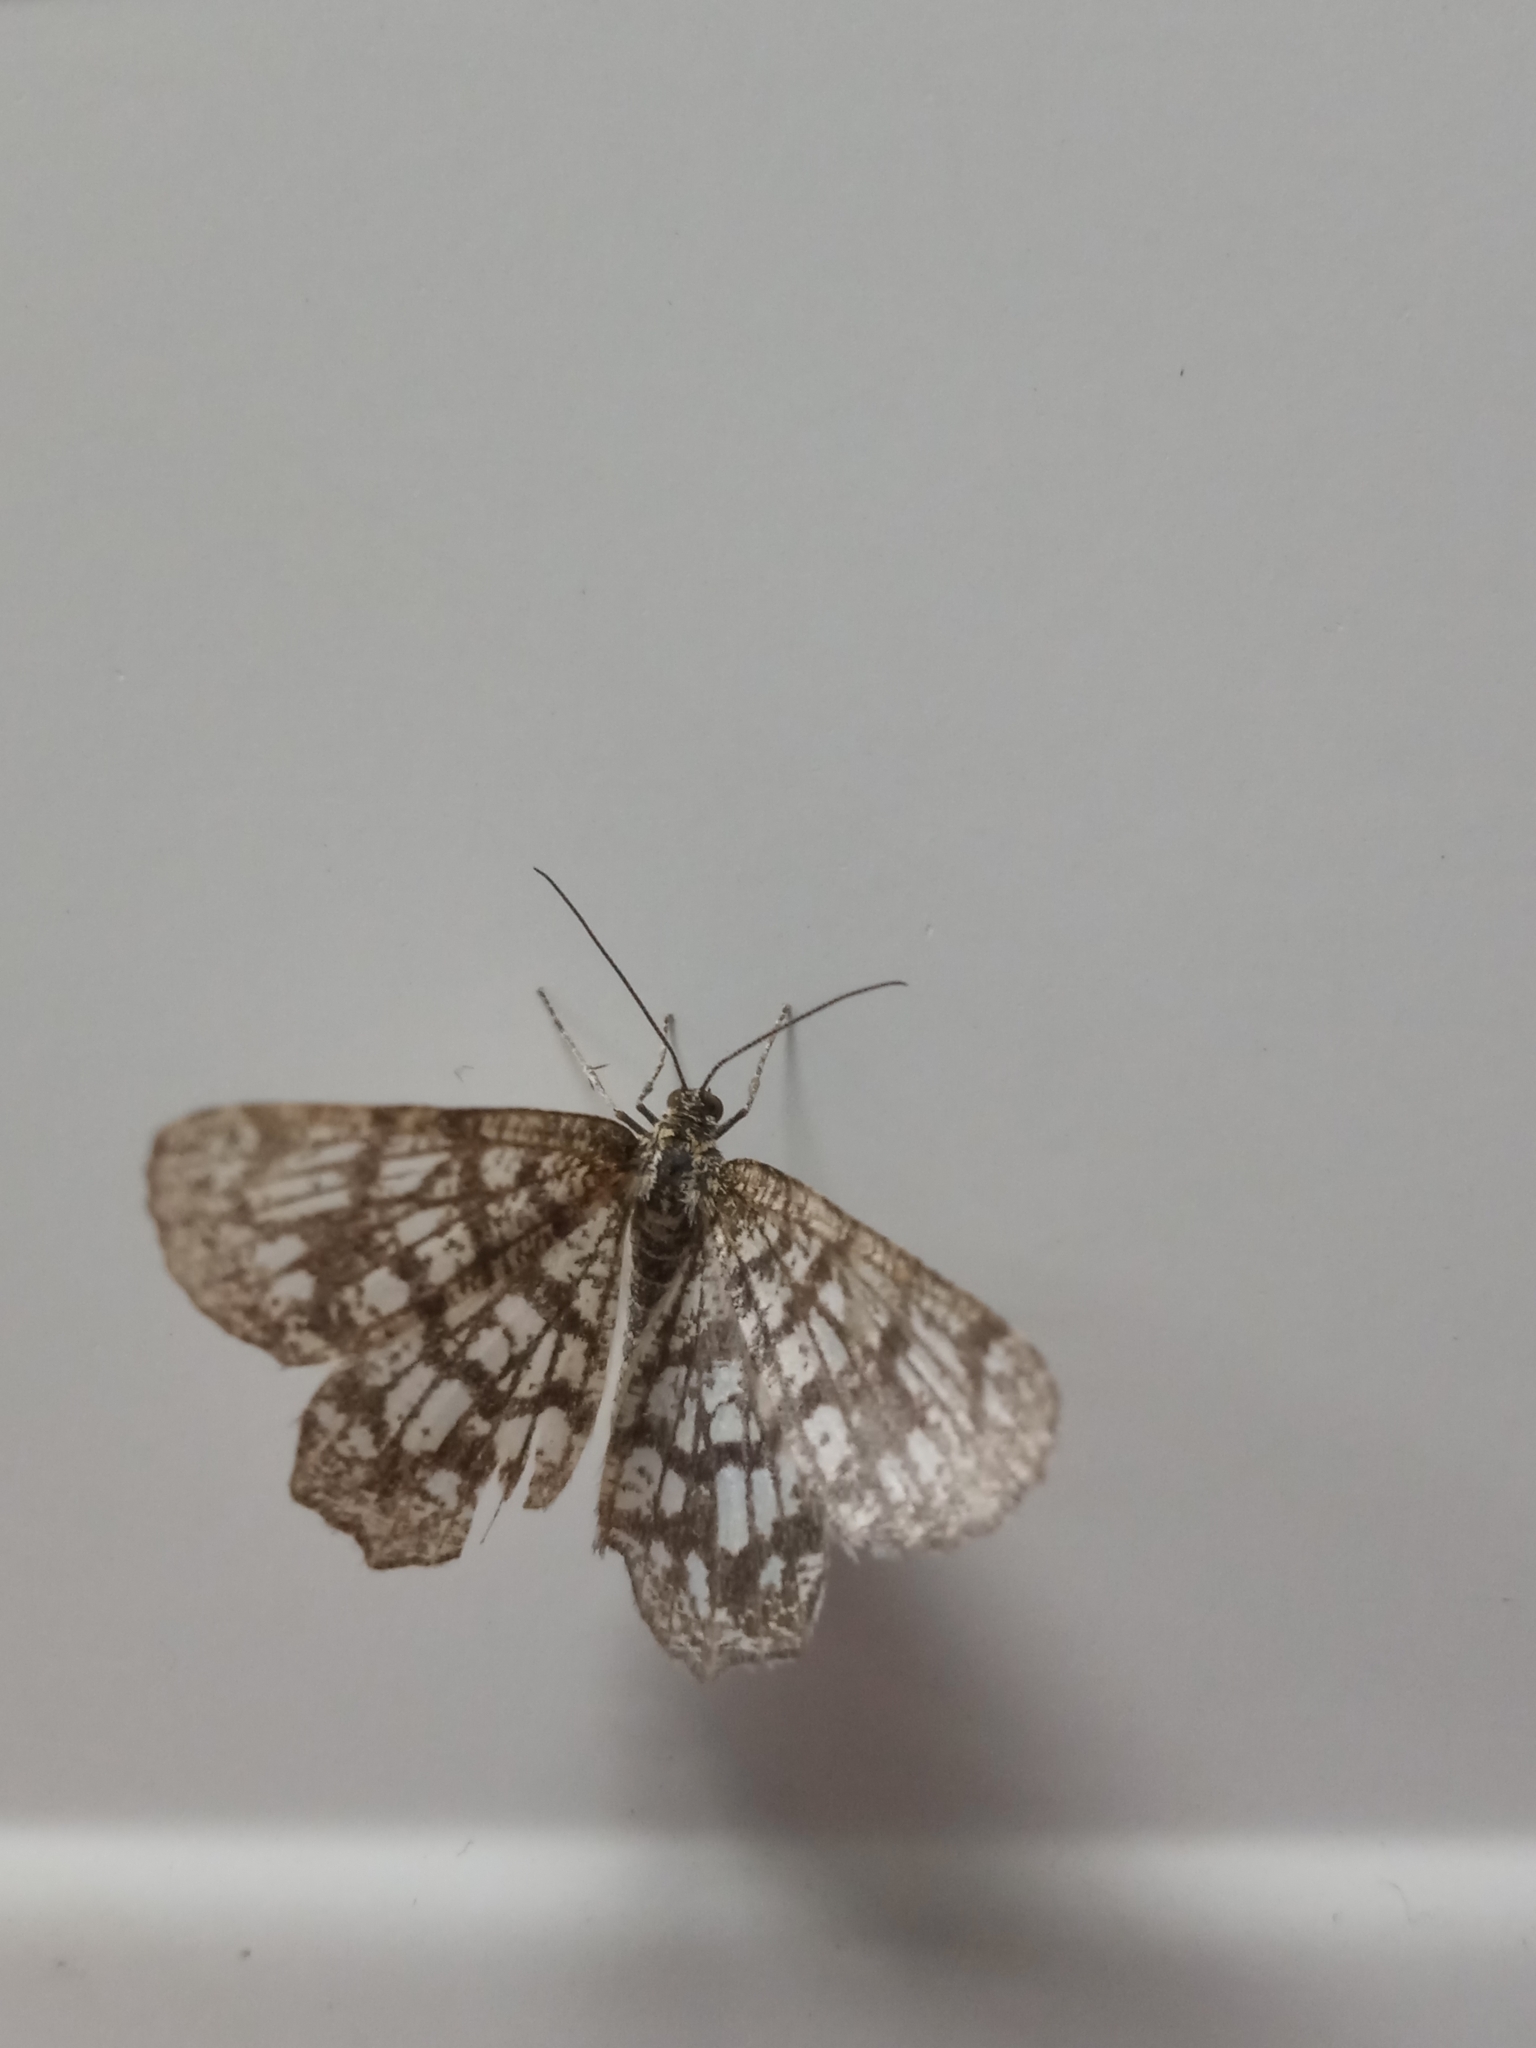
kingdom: Animalia
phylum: Arthropoda
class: Insecta
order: Lepidoptera
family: Geometridae
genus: Chiasmia
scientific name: Chiasmia clathrata
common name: Latticed heath
